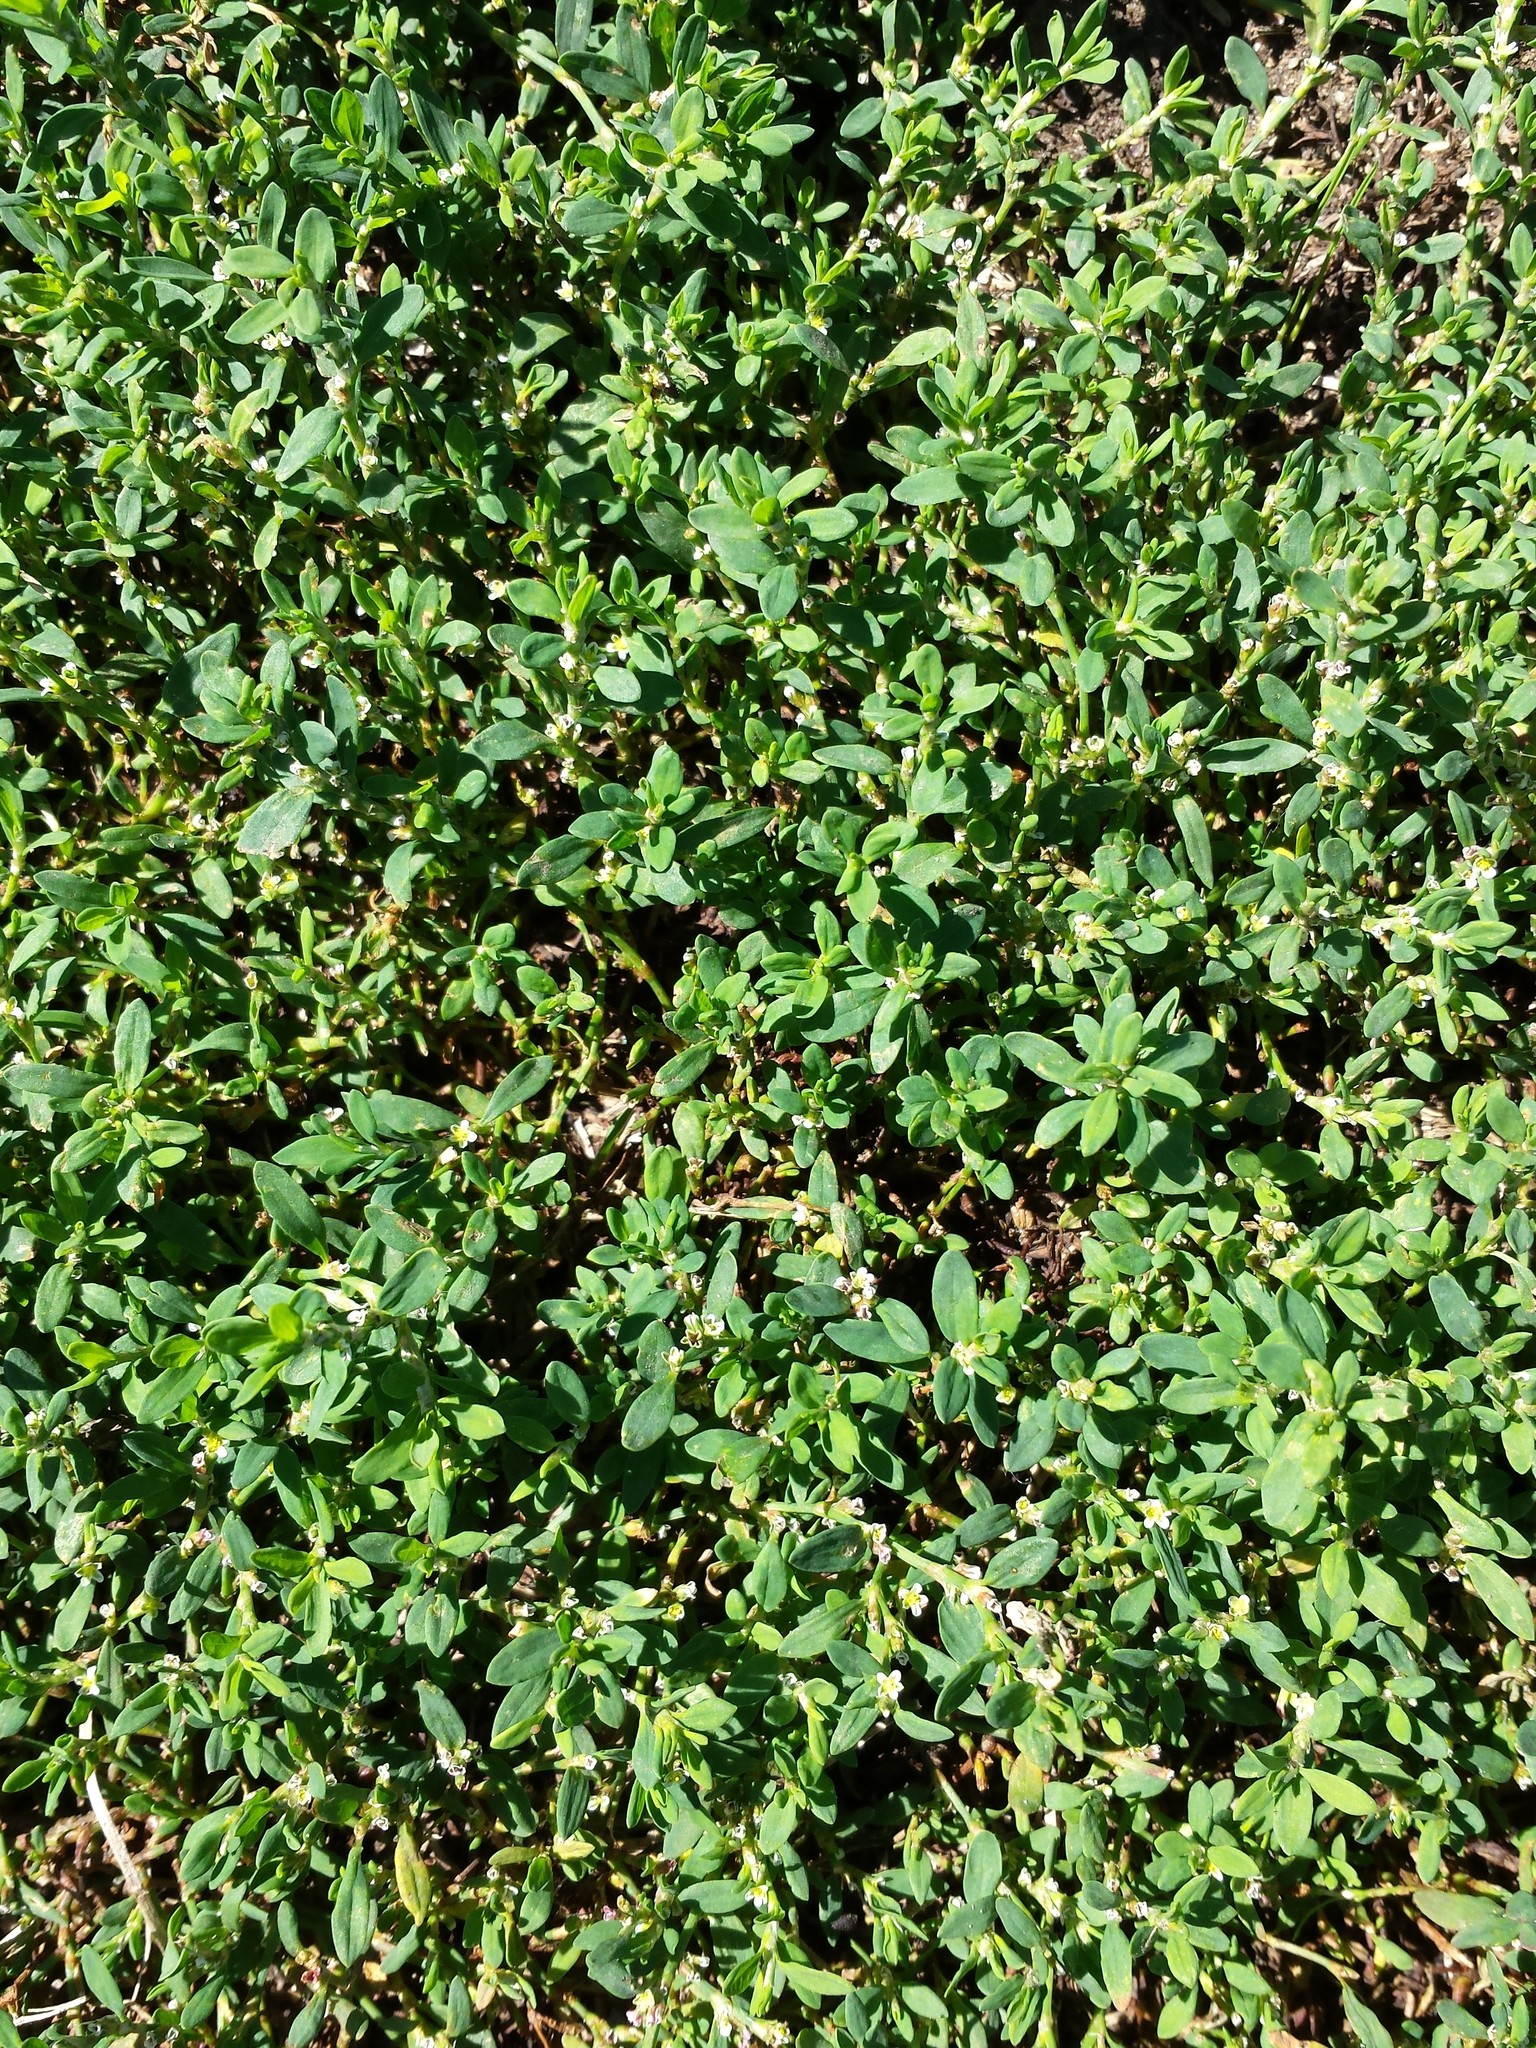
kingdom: Plantae
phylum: Tracheophyta
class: Magnoliopsida
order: Caryophyllales
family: Polygonaceae
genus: Polygonum
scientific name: Polygonum aviculare
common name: Prostrate knotweed
